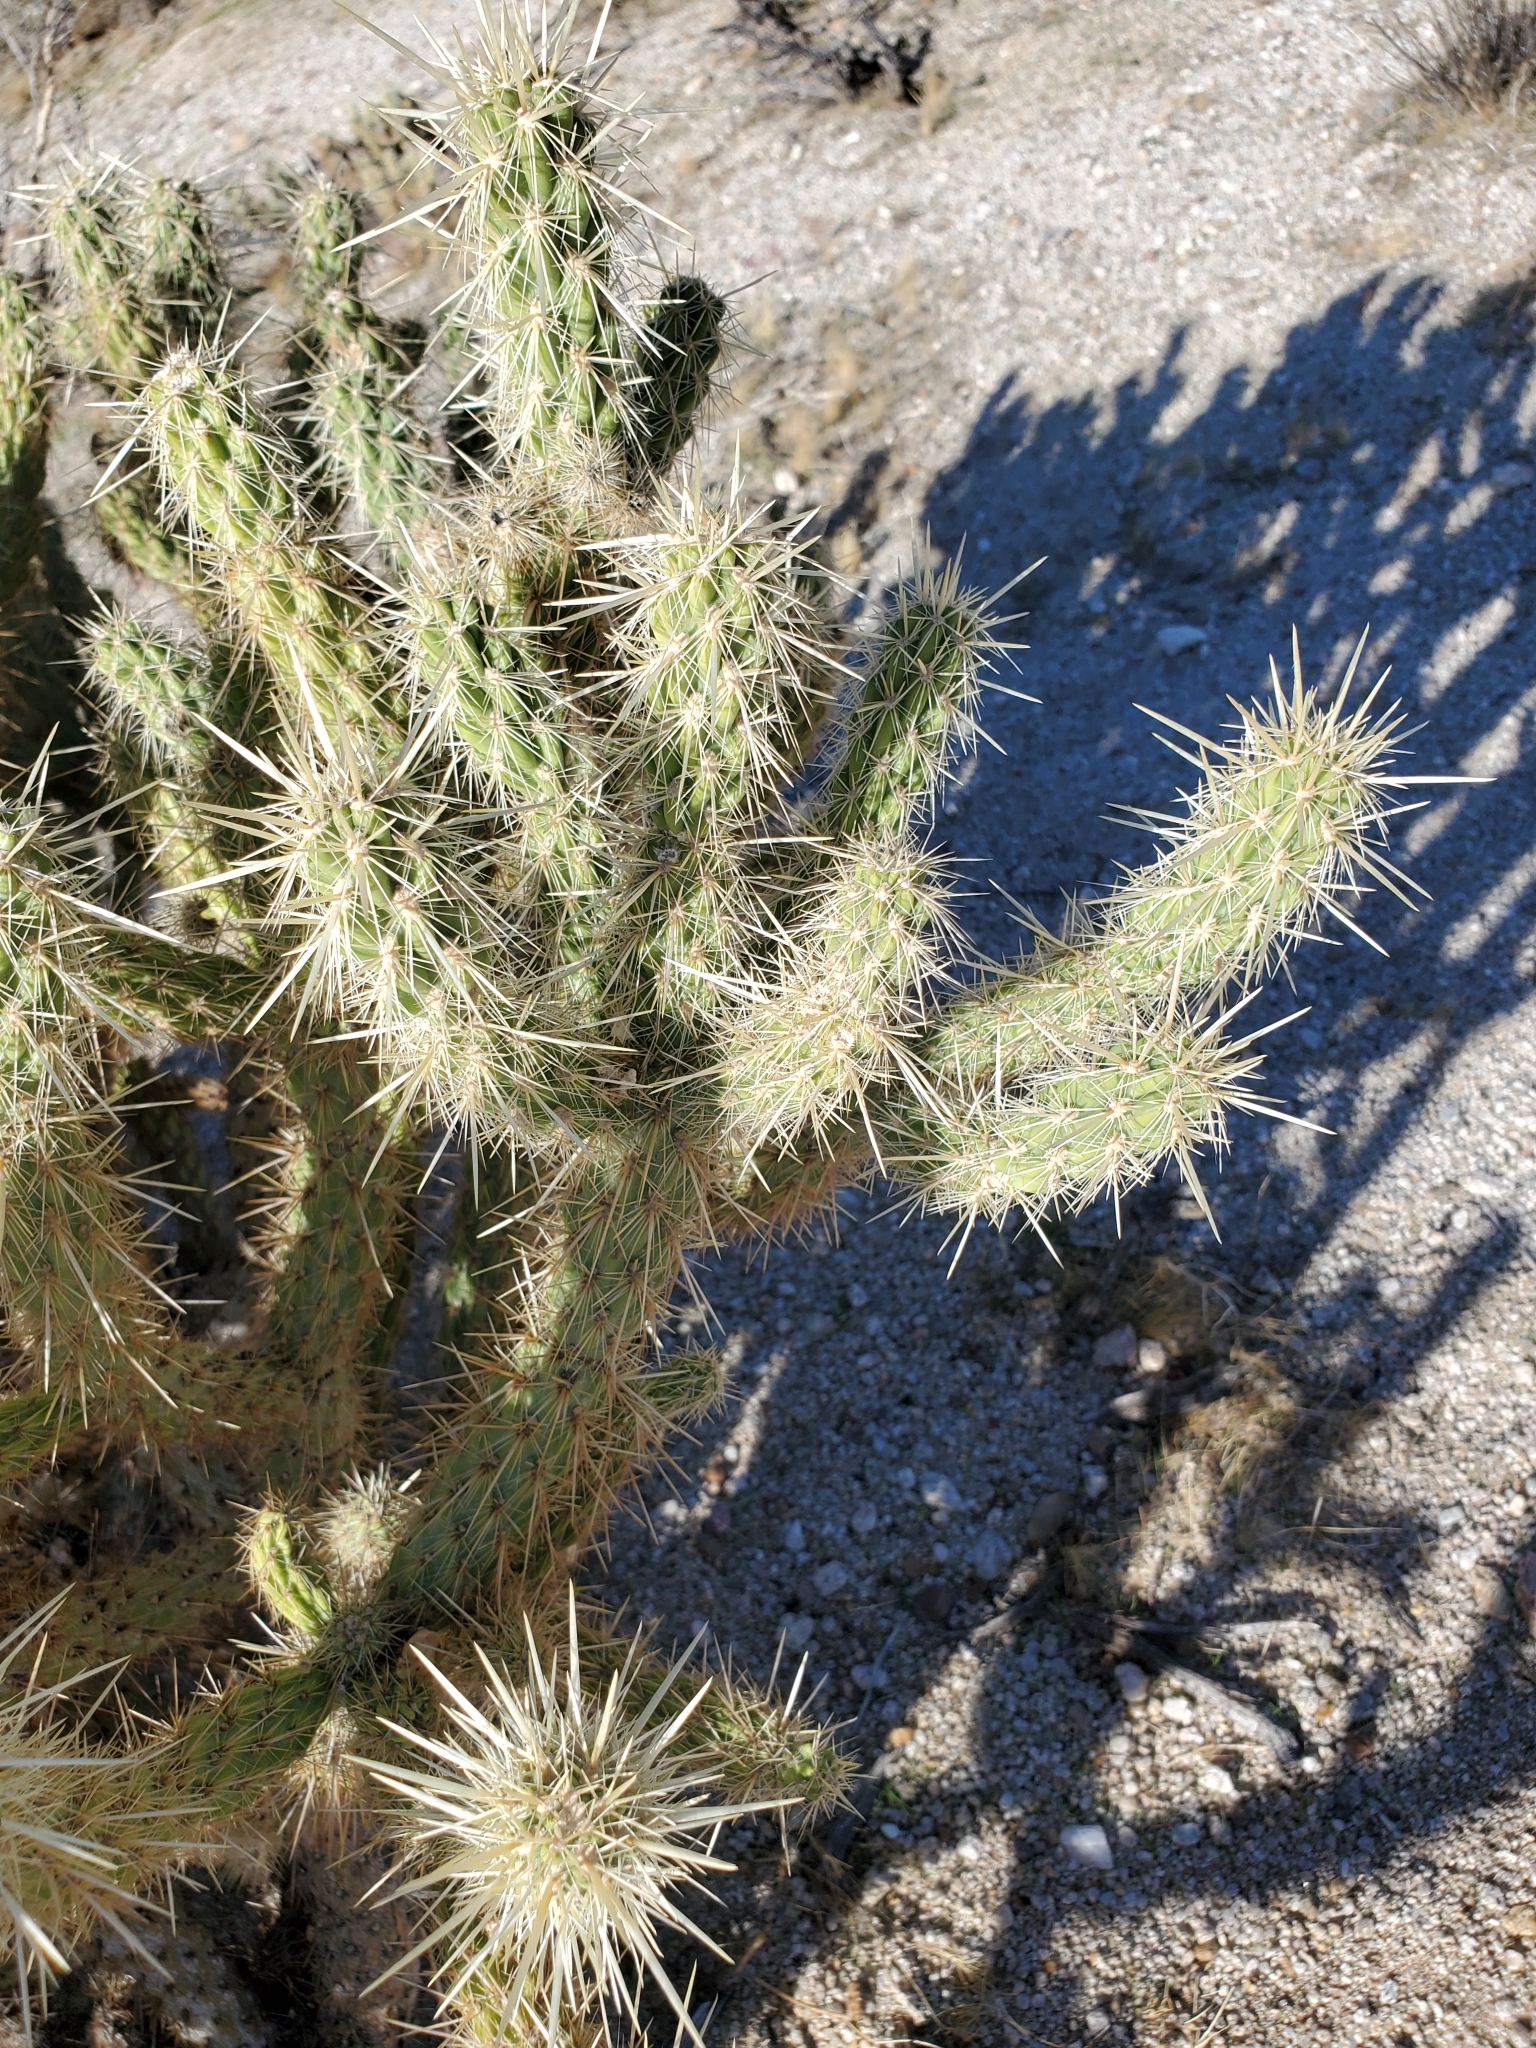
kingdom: Plantae
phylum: Tracheophyta
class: Magnoliopsida
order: Caryophyllales
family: Cactaceae
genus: Cylindropuntia
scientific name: Cylindropuntia echinocarpa
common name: Ground cholla
